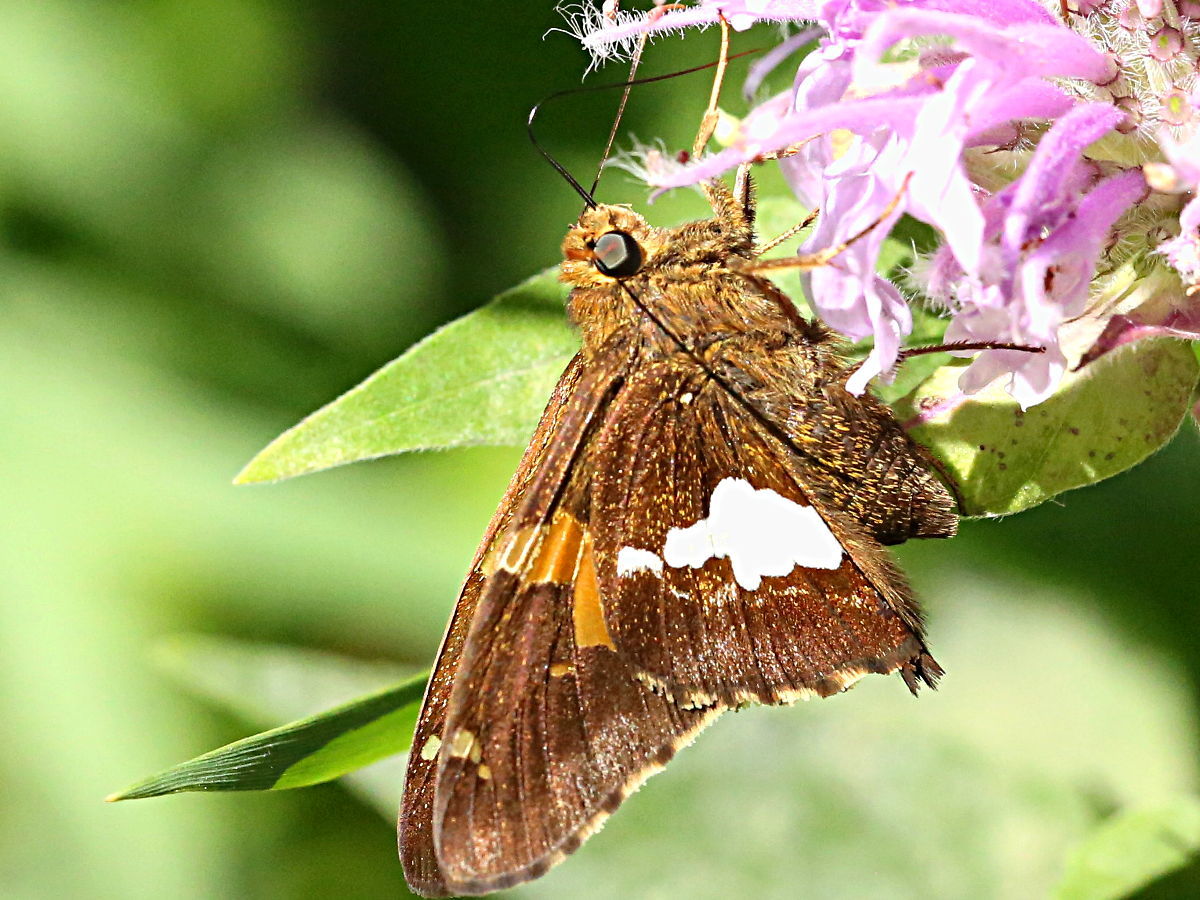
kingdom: Animalia
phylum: Arthropoda
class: Insecta
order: Lepidoptera
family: Hesperiidae
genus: Epargyreus
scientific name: Epargyreus clarus
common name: Silver-spotted skipper
